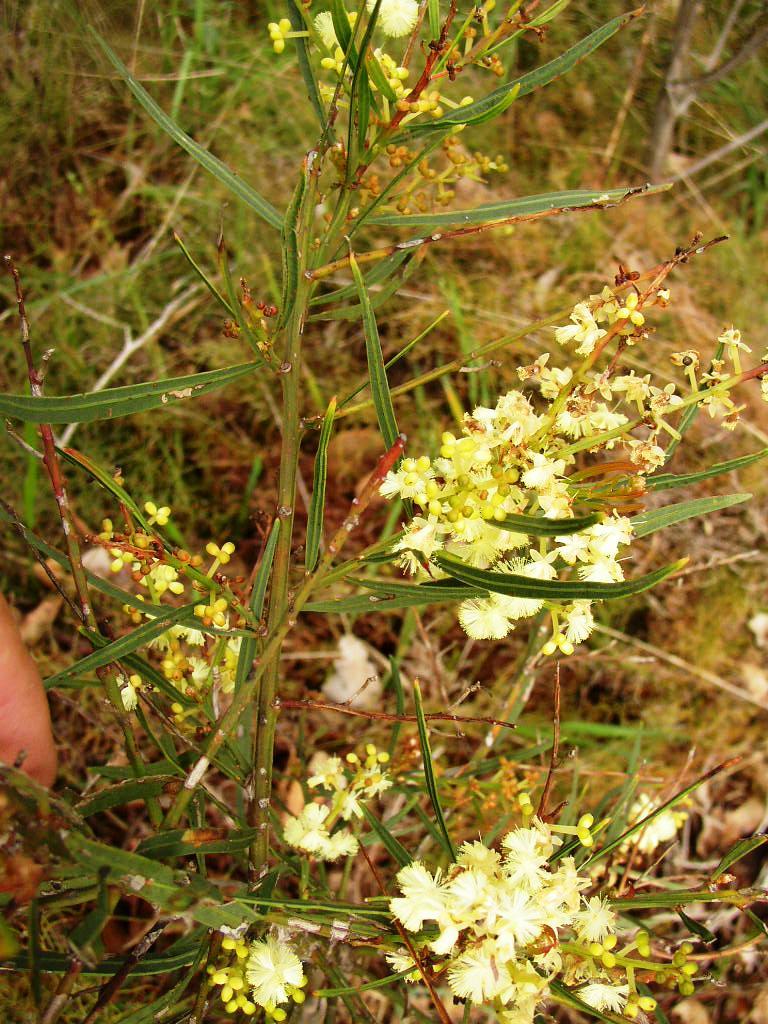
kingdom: Plantae
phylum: Tracheophyta
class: Magnoliopsida
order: Fabales
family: Fabaceae
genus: Acacia
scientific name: Acacia myrtifolia
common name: Myrtle wattle
